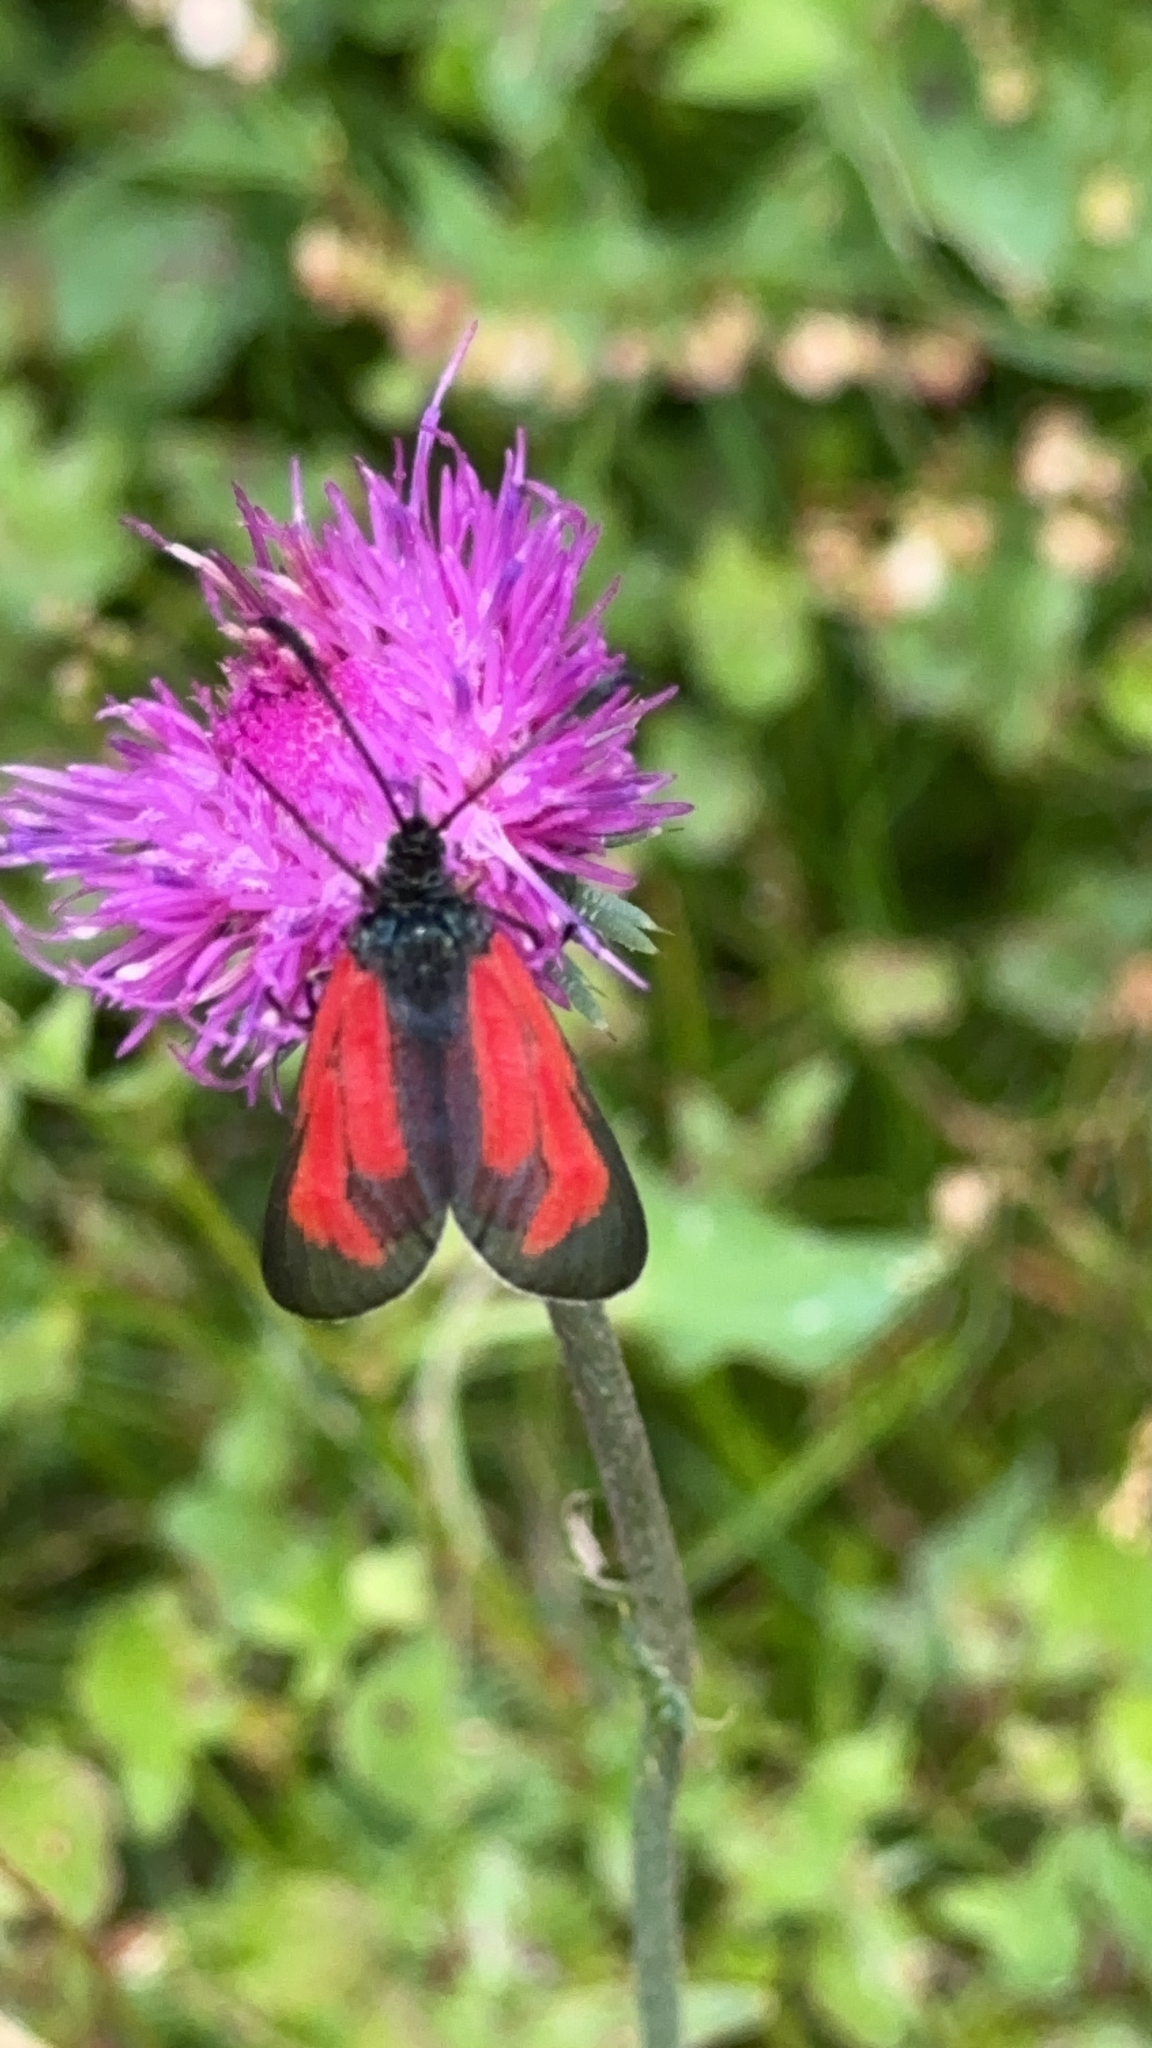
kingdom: Animalia
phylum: Arthropoda
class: Insecta
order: Lepidoptera
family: Zygaenidae
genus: Zygaena
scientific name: Zygaena purpuralis
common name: Transparent burnet
